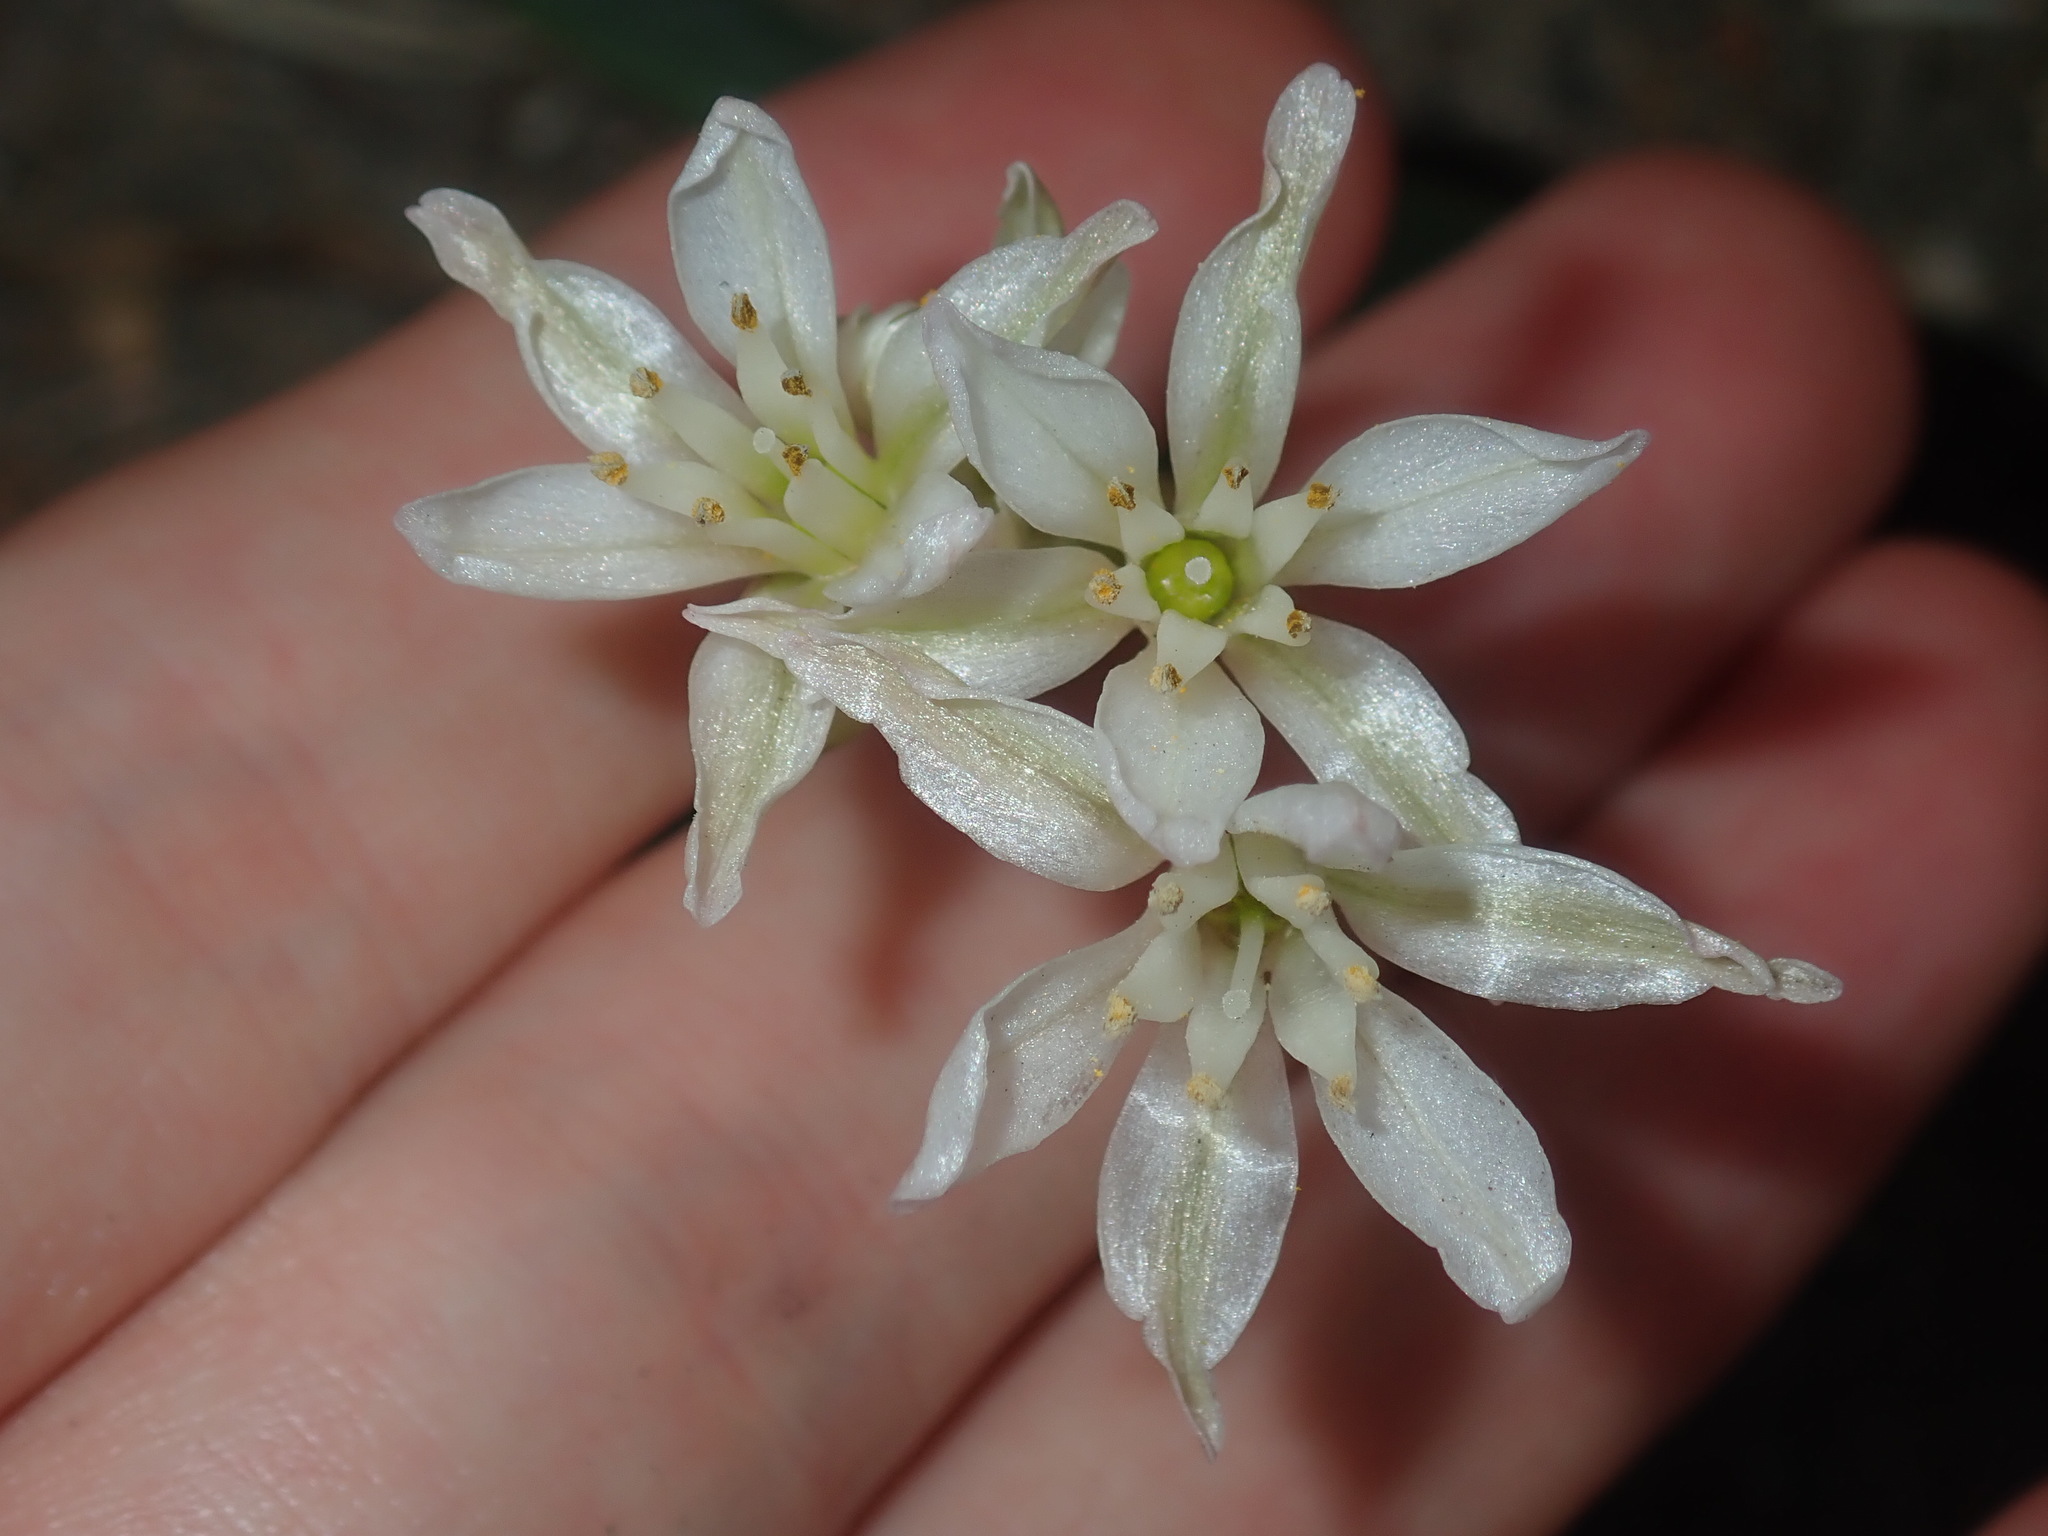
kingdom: Plantae
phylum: Tracheophyta
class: Liliopsida
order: Asparagales
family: Amaryllidaceae
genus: Nothoscordum
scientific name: Nothoscordum gracile
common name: Slender false garlic
